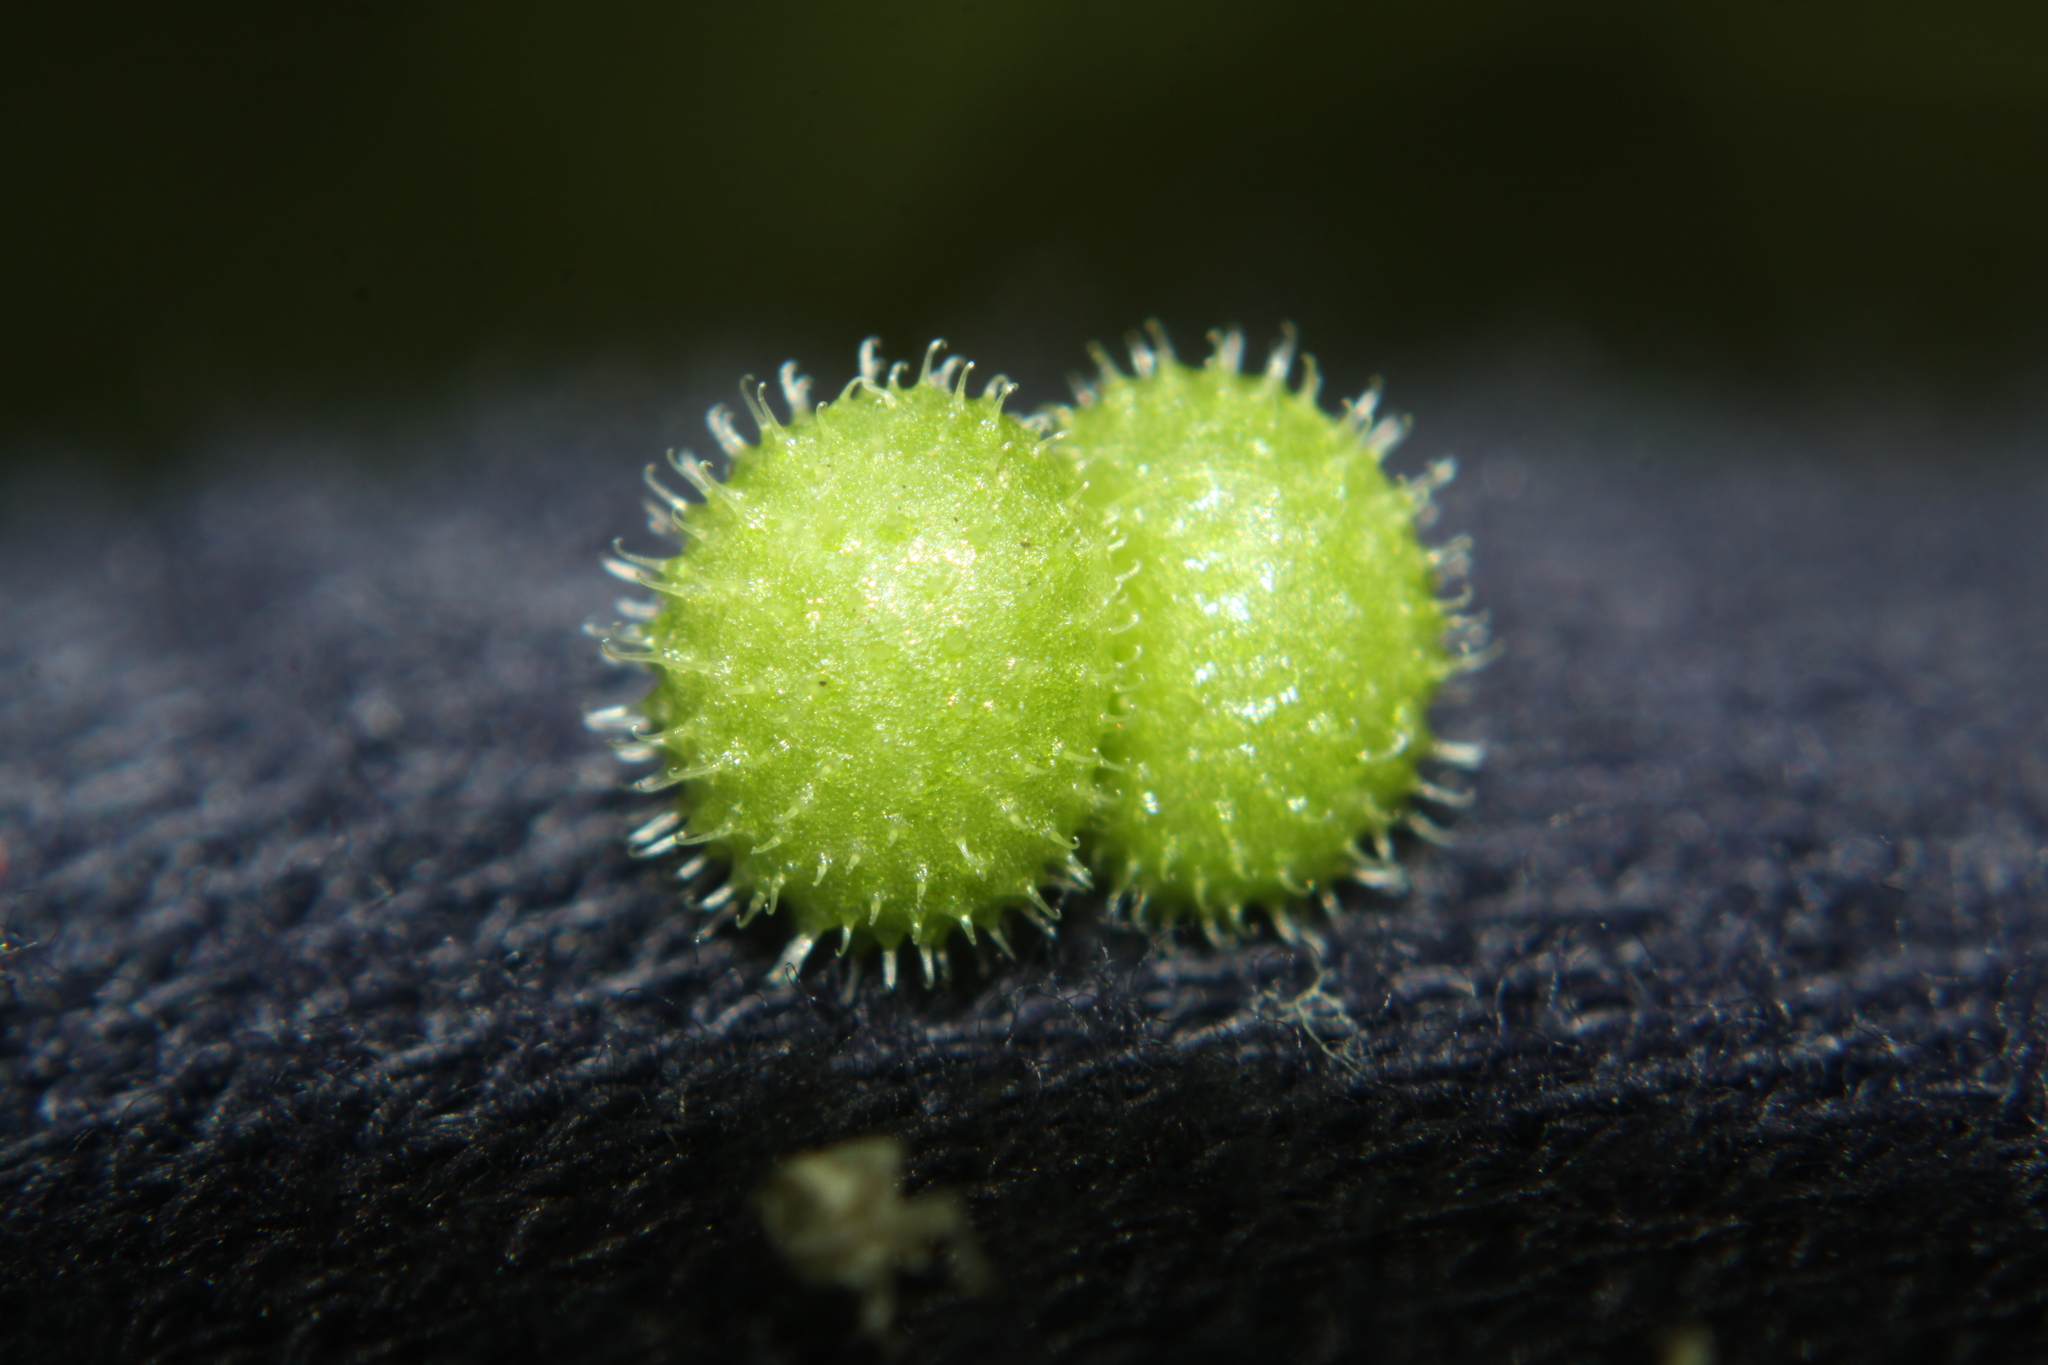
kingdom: Plantae
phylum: Tracheophyta
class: Magnoliopsida
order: Gentianales
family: Rubiaceae
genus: Galium
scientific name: Galium aparine
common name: Cleavers
